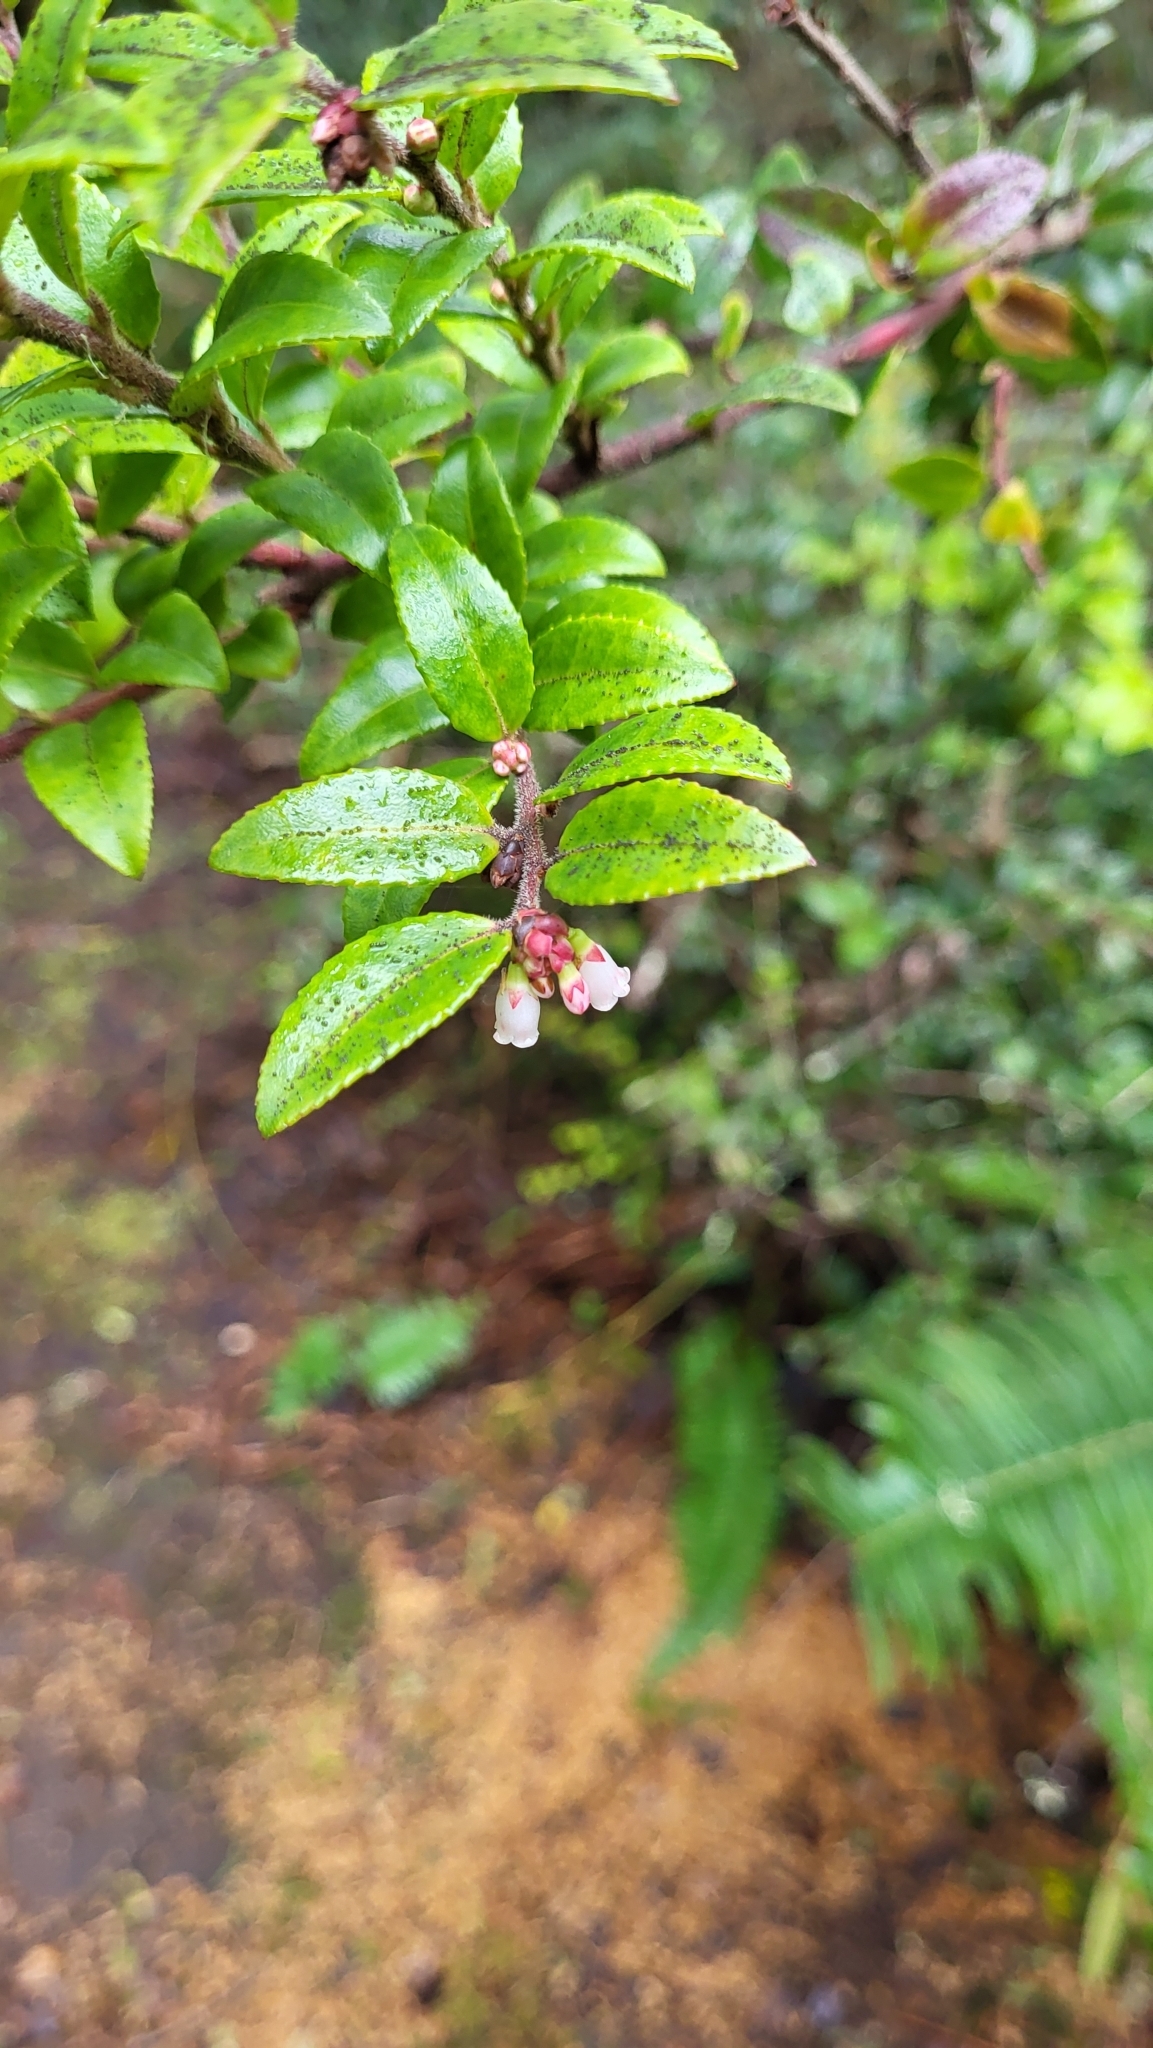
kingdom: Plantae
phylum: Tracheophyta
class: Magnoliopsida
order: Ericales
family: Ericaceae
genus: Vaccinium
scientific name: Vaccinium ovatum
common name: California-huckleberry
